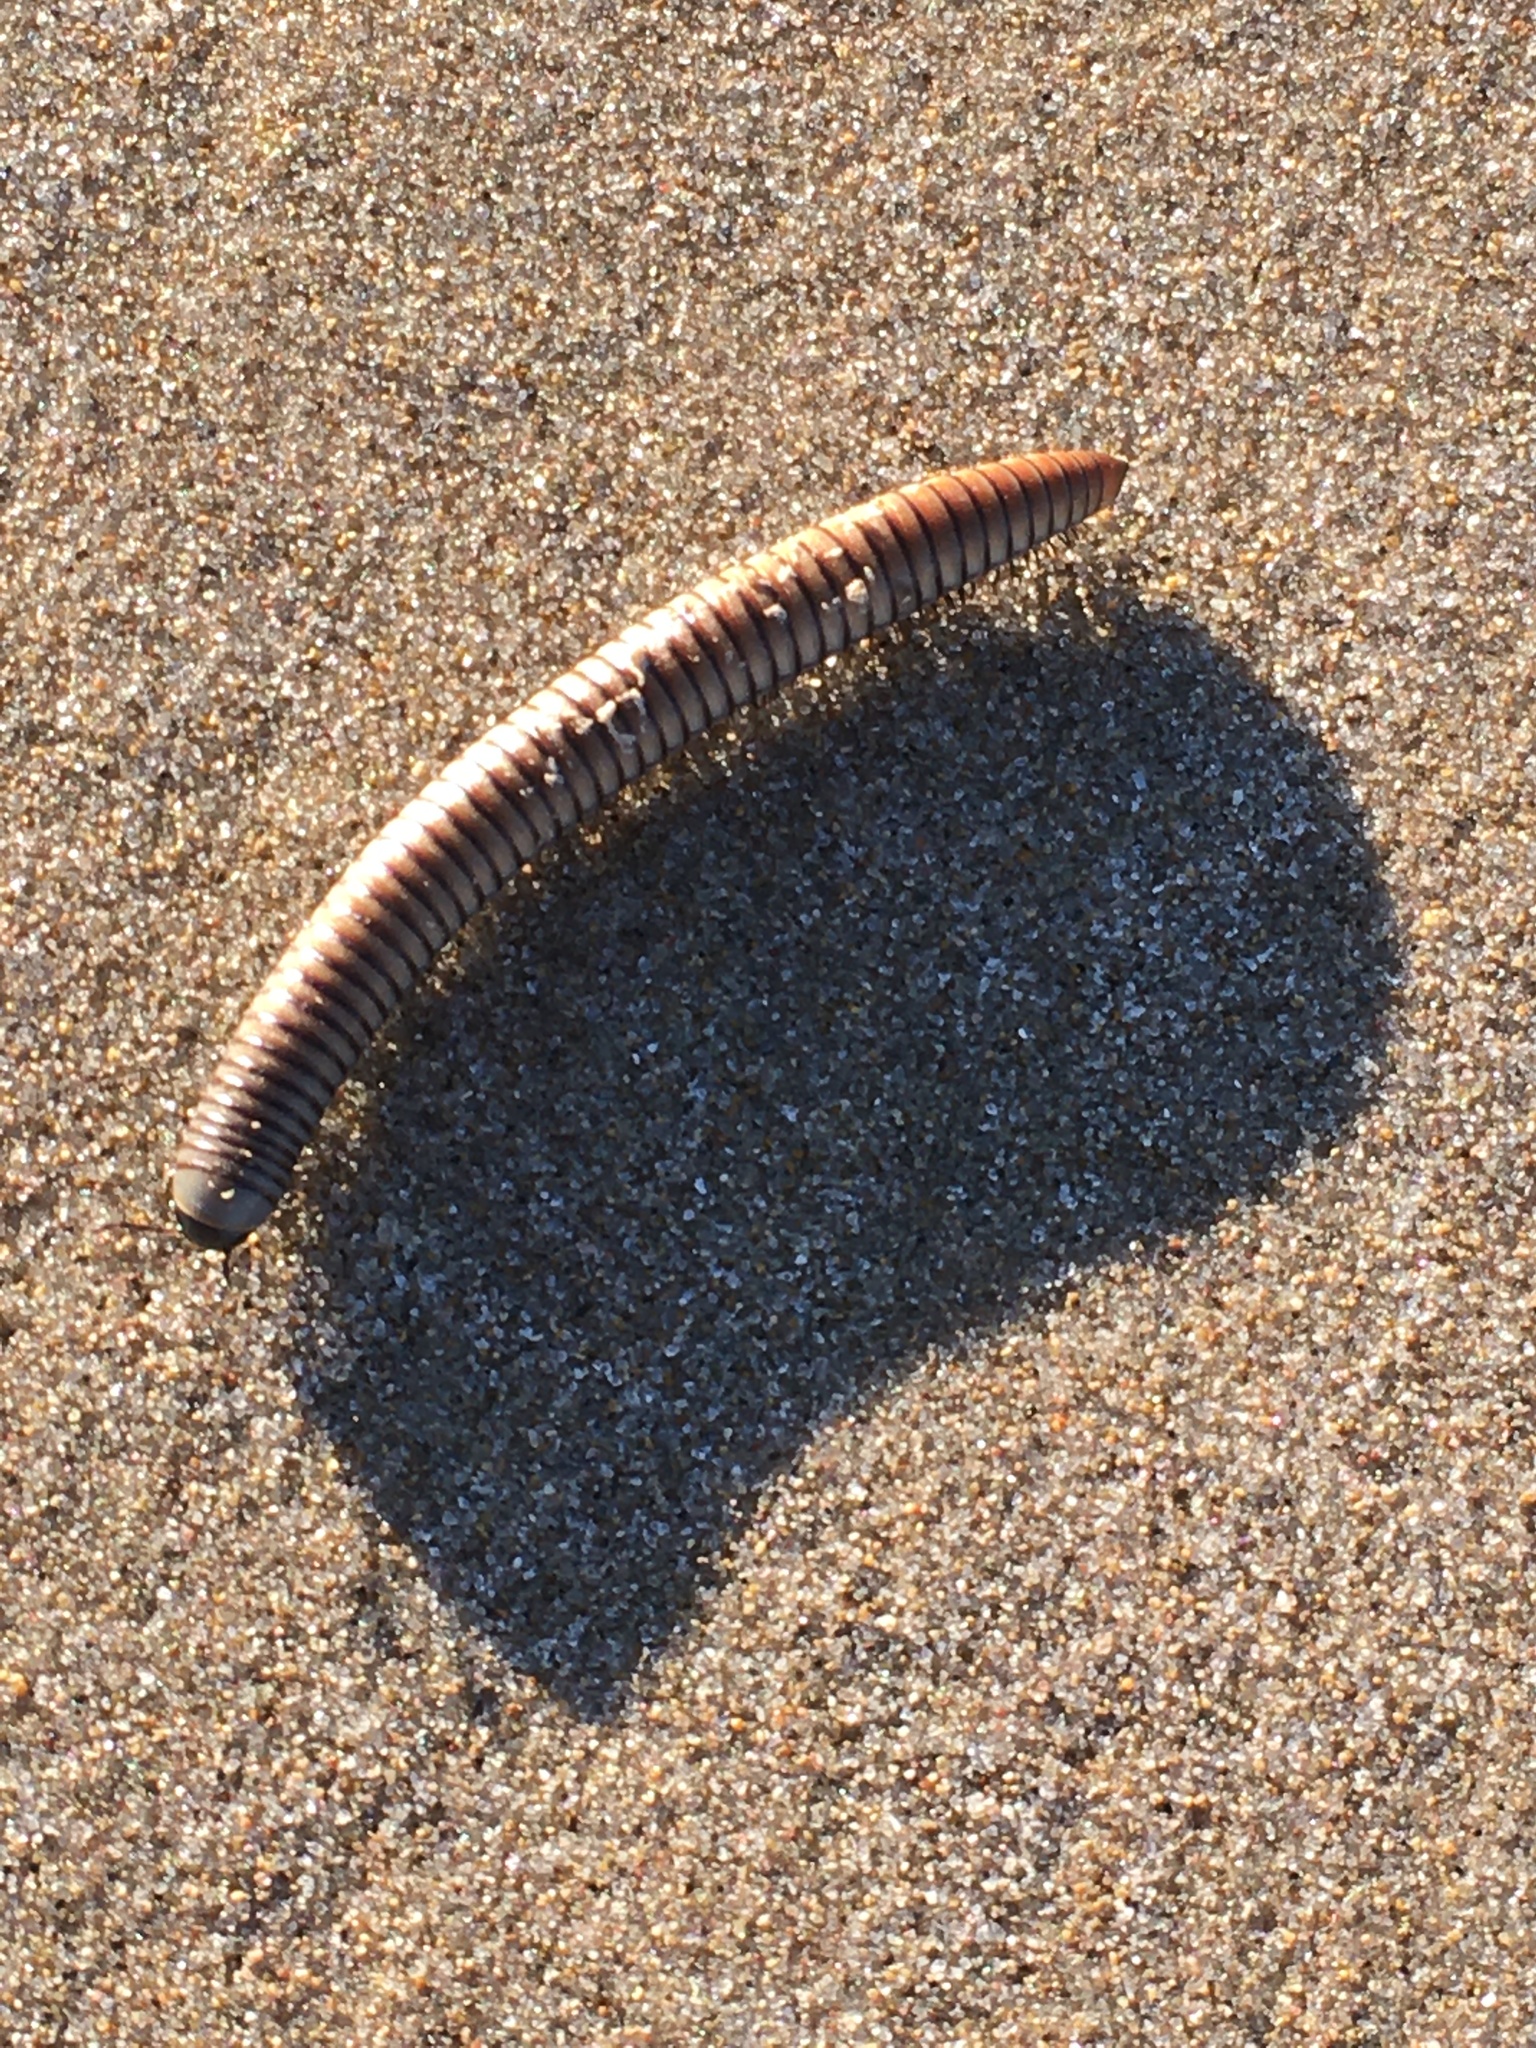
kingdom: Animalia
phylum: Arthropoda
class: Diplopoda
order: Julida
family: Julidae
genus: Ommatoiulus
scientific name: Ommatoiulus rutilans
